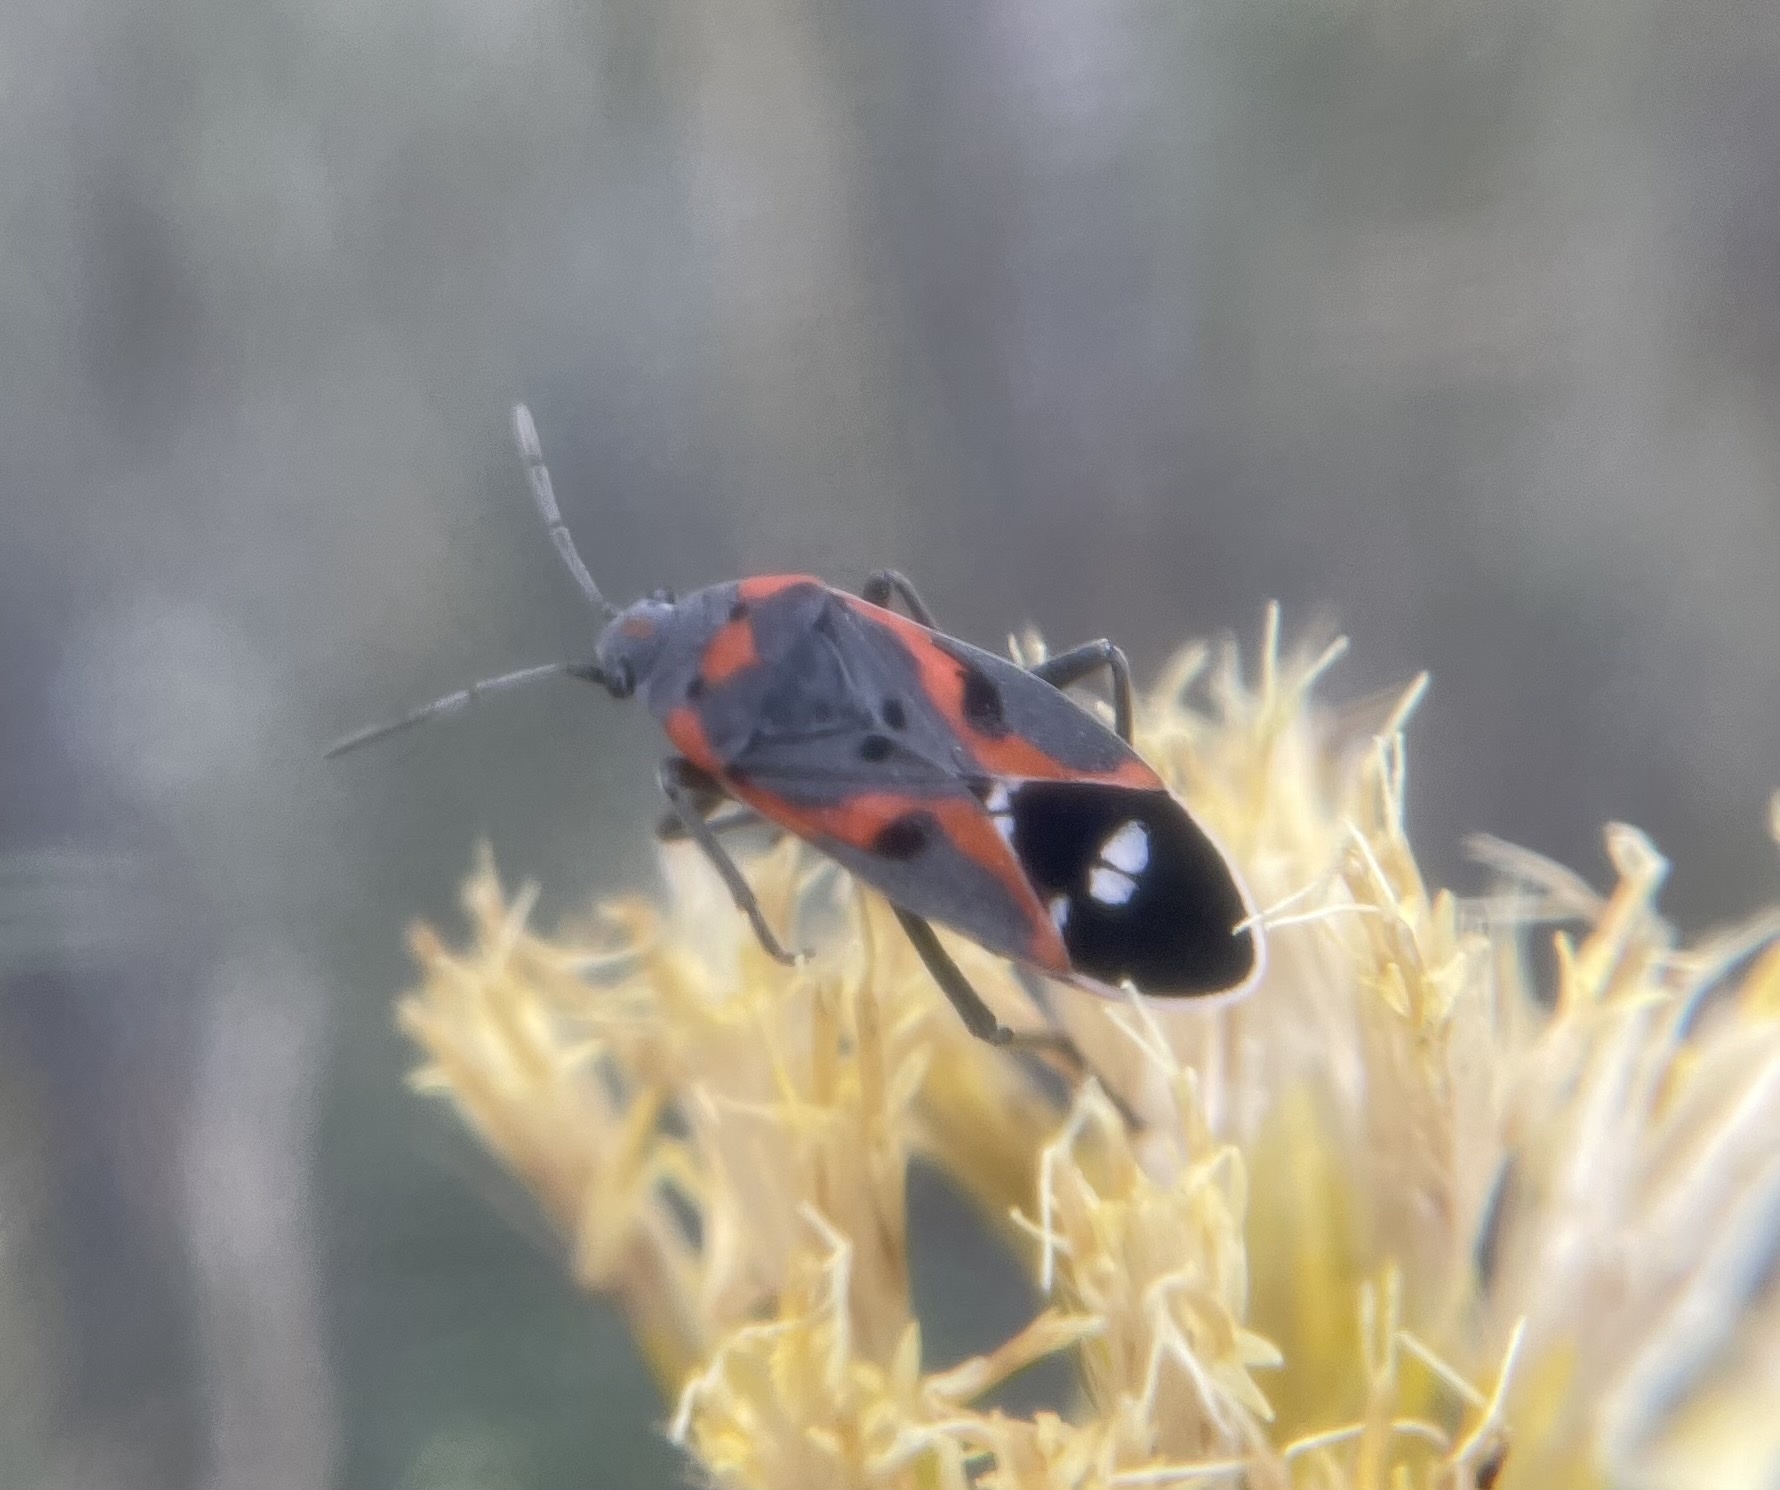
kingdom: Animalia
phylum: Arthropoda
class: Insecta
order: Hemiptera
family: Lygaeidae
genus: Lygaeus
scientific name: Lygaeus kalmii
